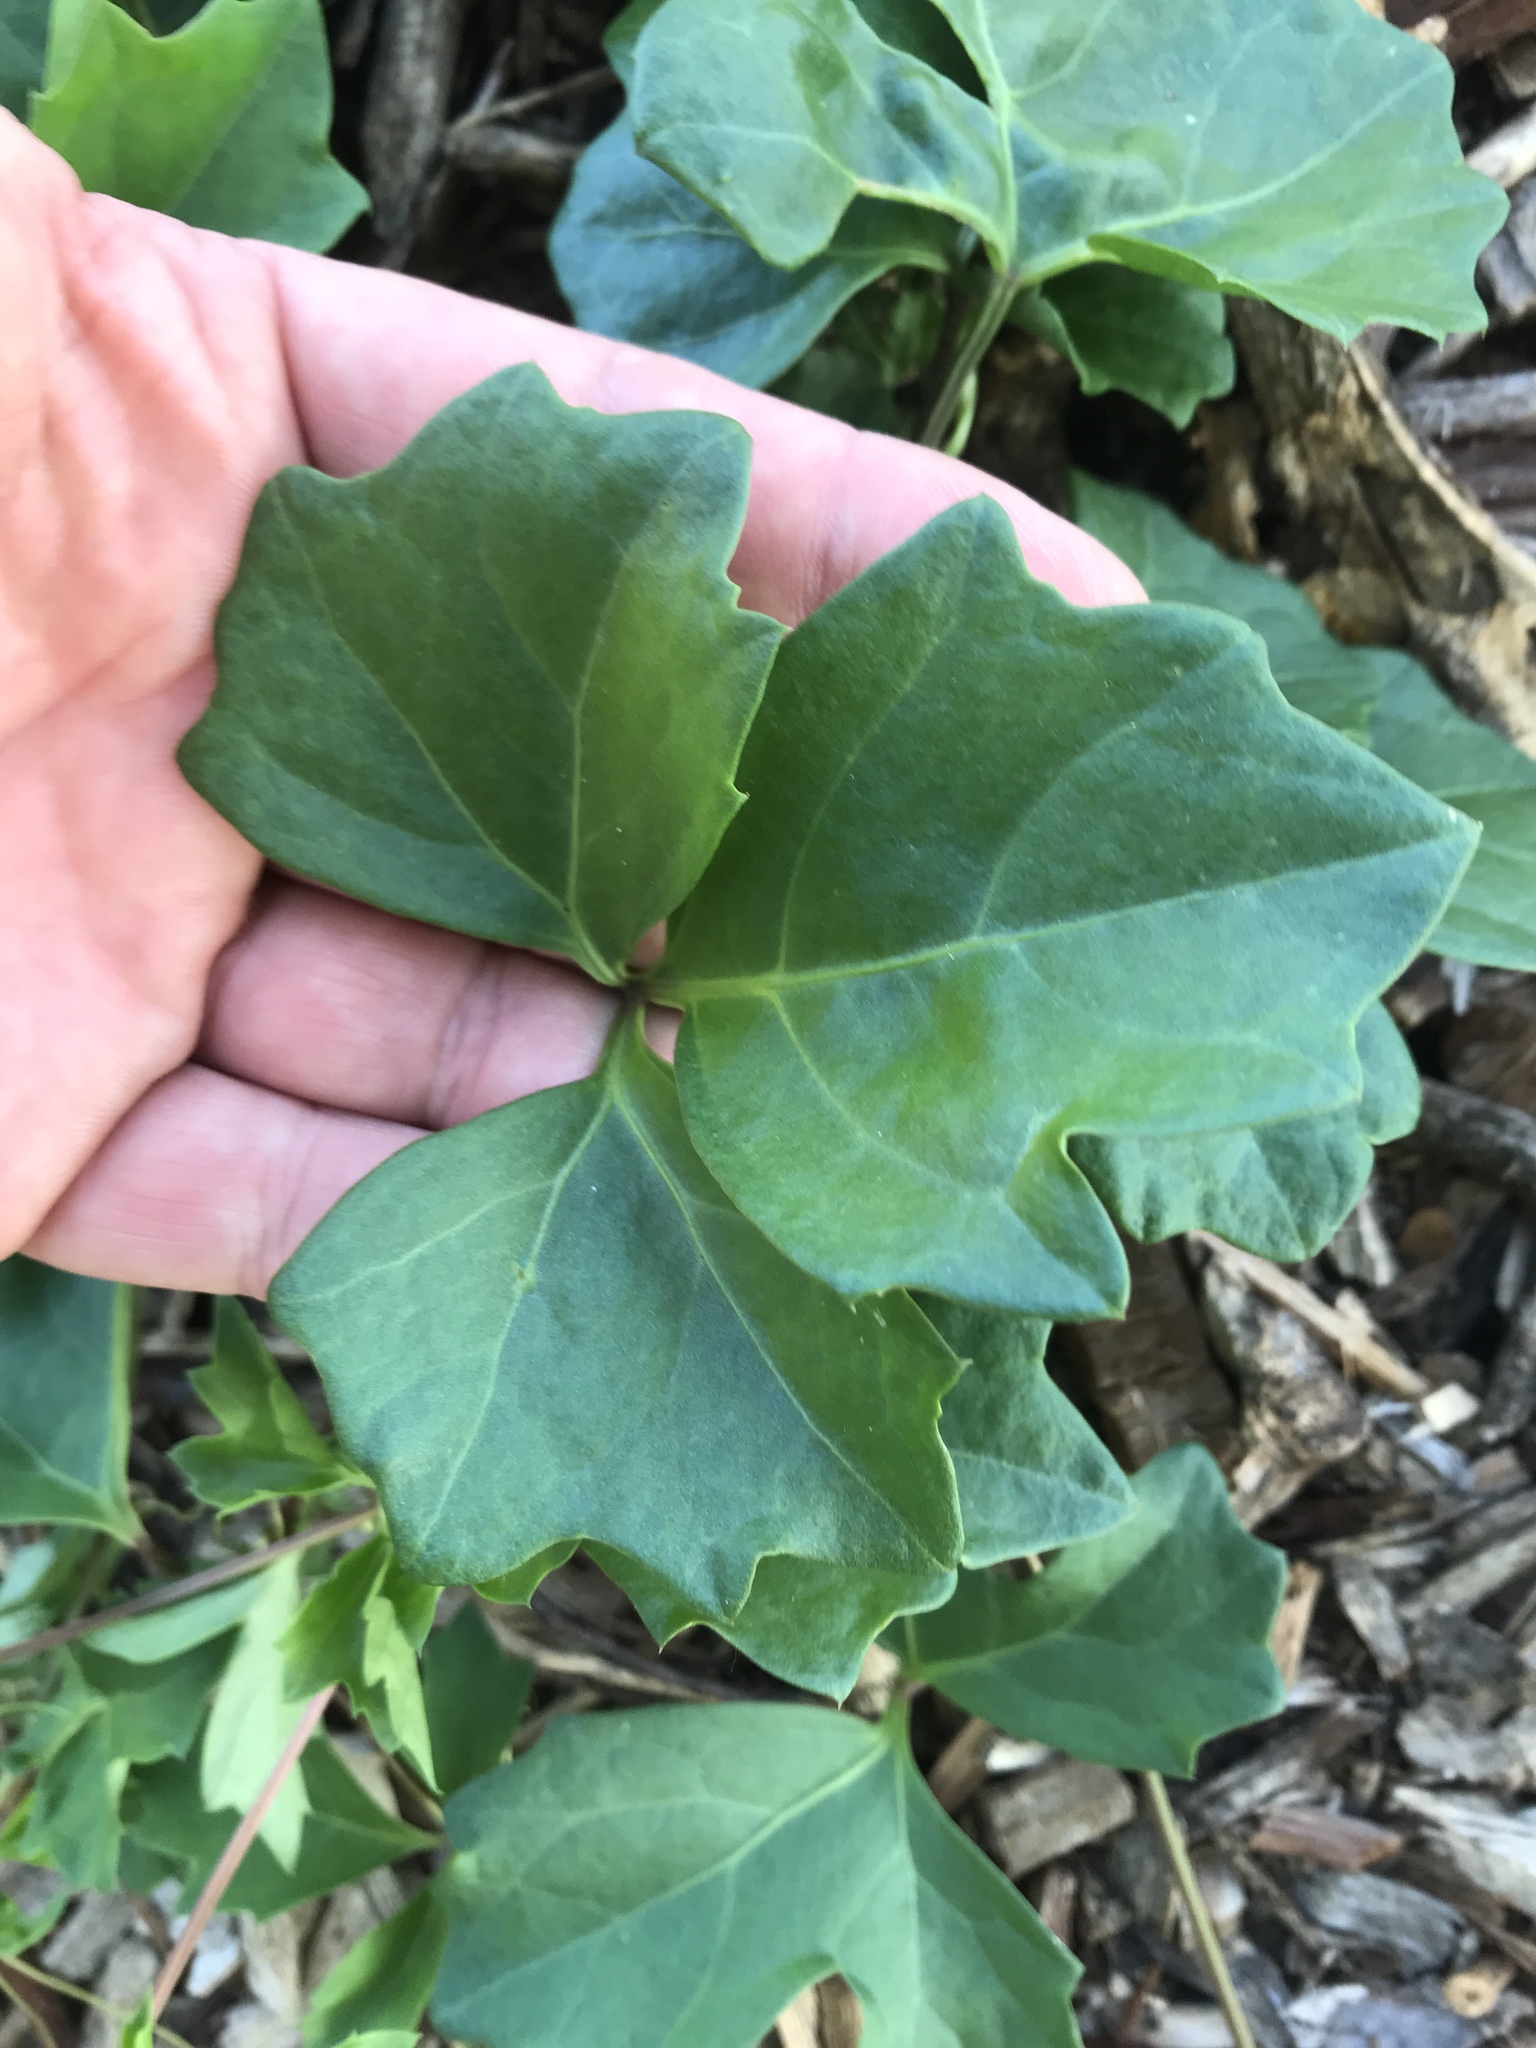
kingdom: Plantae
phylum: Tracheophyta
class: Magnoliopsida
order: Vitales
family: Vitaceae
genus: Cissus
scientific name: Cissus trifoliata
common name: Vine-sorrel
